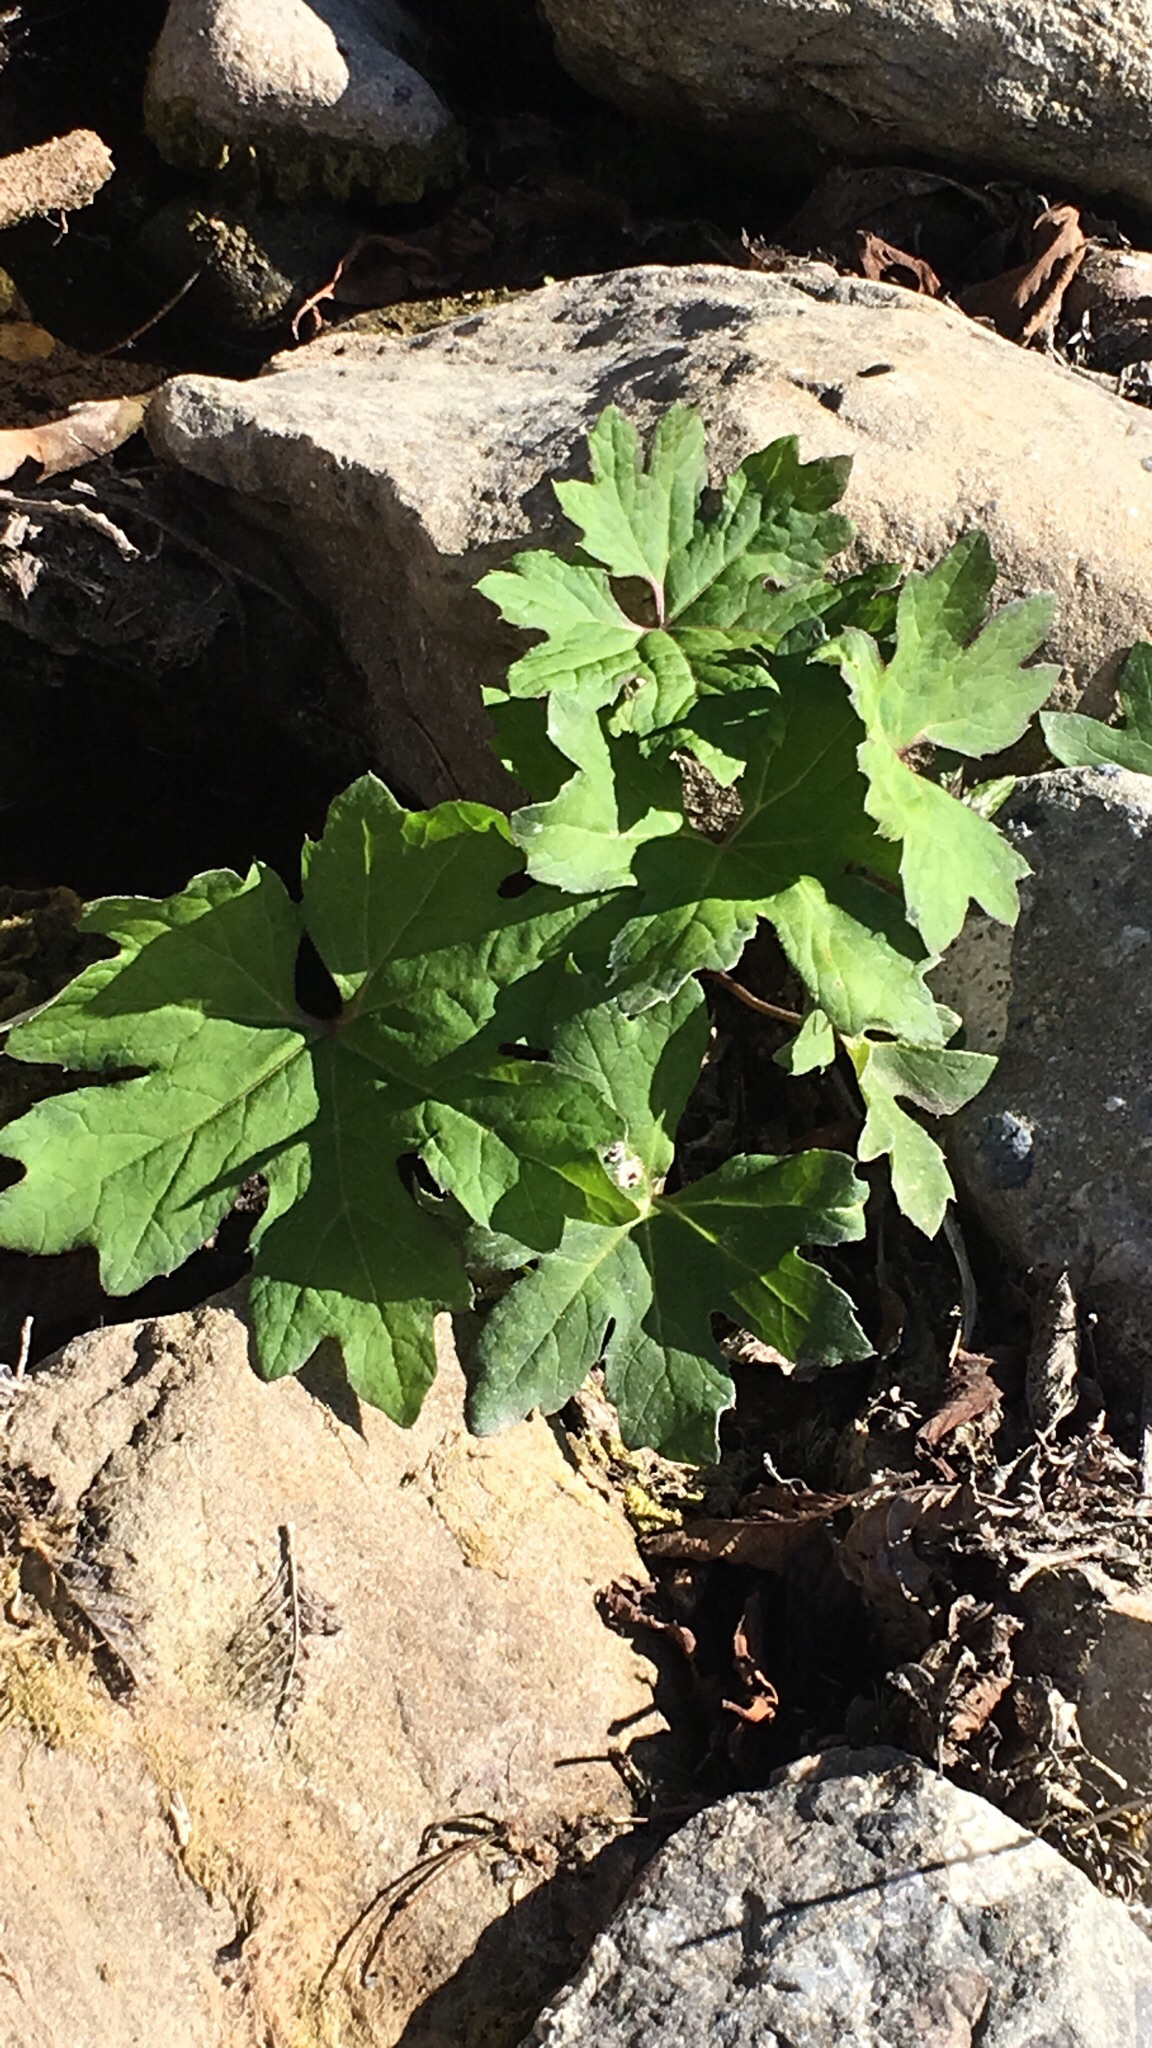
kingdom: Plantae
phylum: Tracheophyta
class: Magnoliopsida
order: Asterales
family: Asteraceae
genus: Petasites
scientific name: Petasites frigidus
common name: Arctic butterbur
